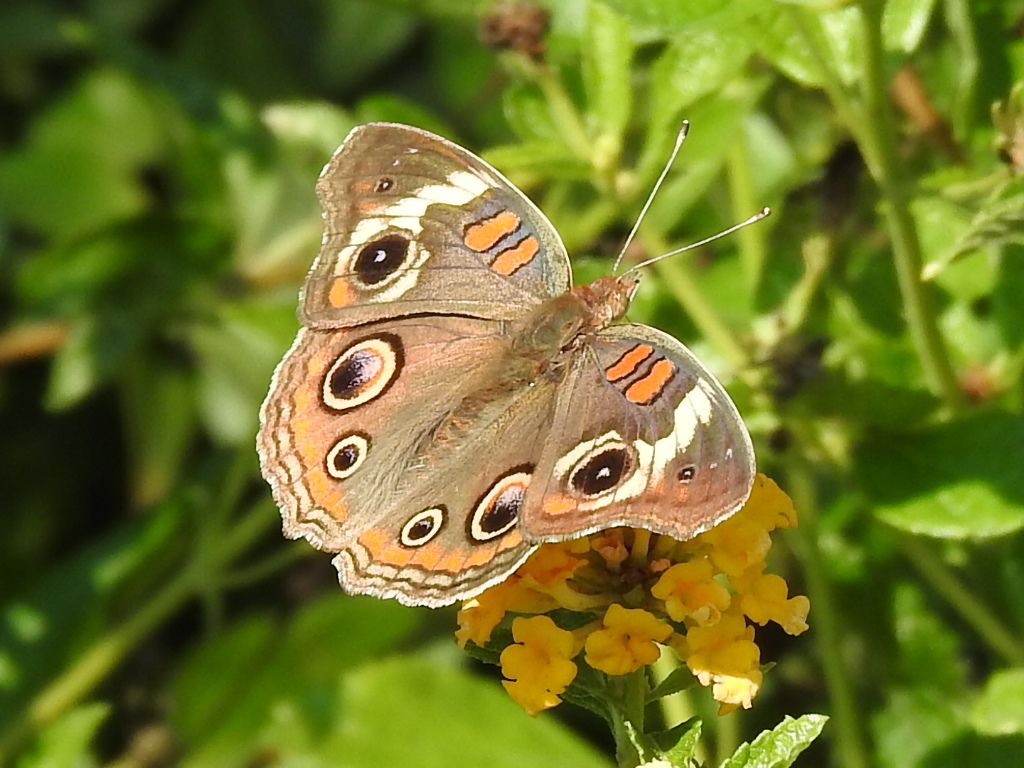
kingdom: Animalia
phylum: Arthropoda
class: Insecta
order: Lepidoptera
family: Nymphalidae
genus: Junonia
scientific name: Junonia coenia
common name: Common buckeye
